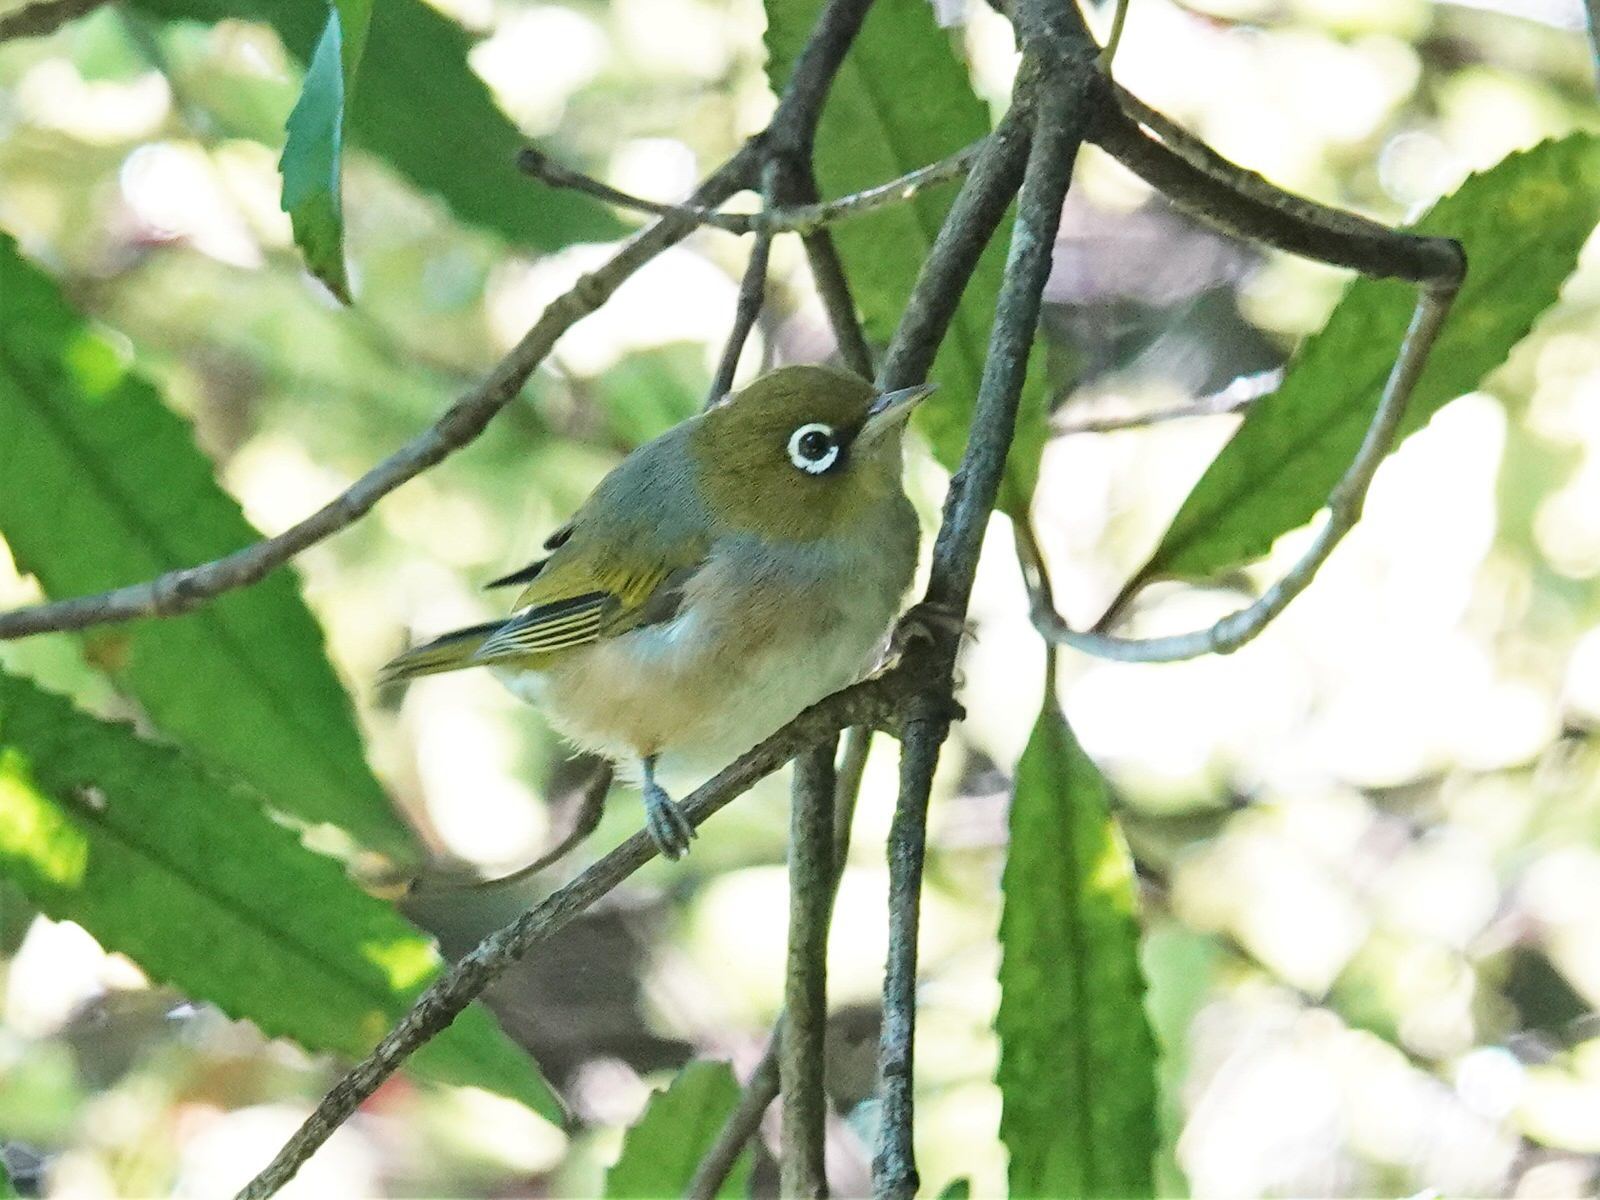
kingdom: Animalia
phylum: Chordata
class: Aves
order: Passeriformes
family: Zosteropidae
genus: Zosterops
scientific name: Zosterops lateralis
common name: Silvereye
